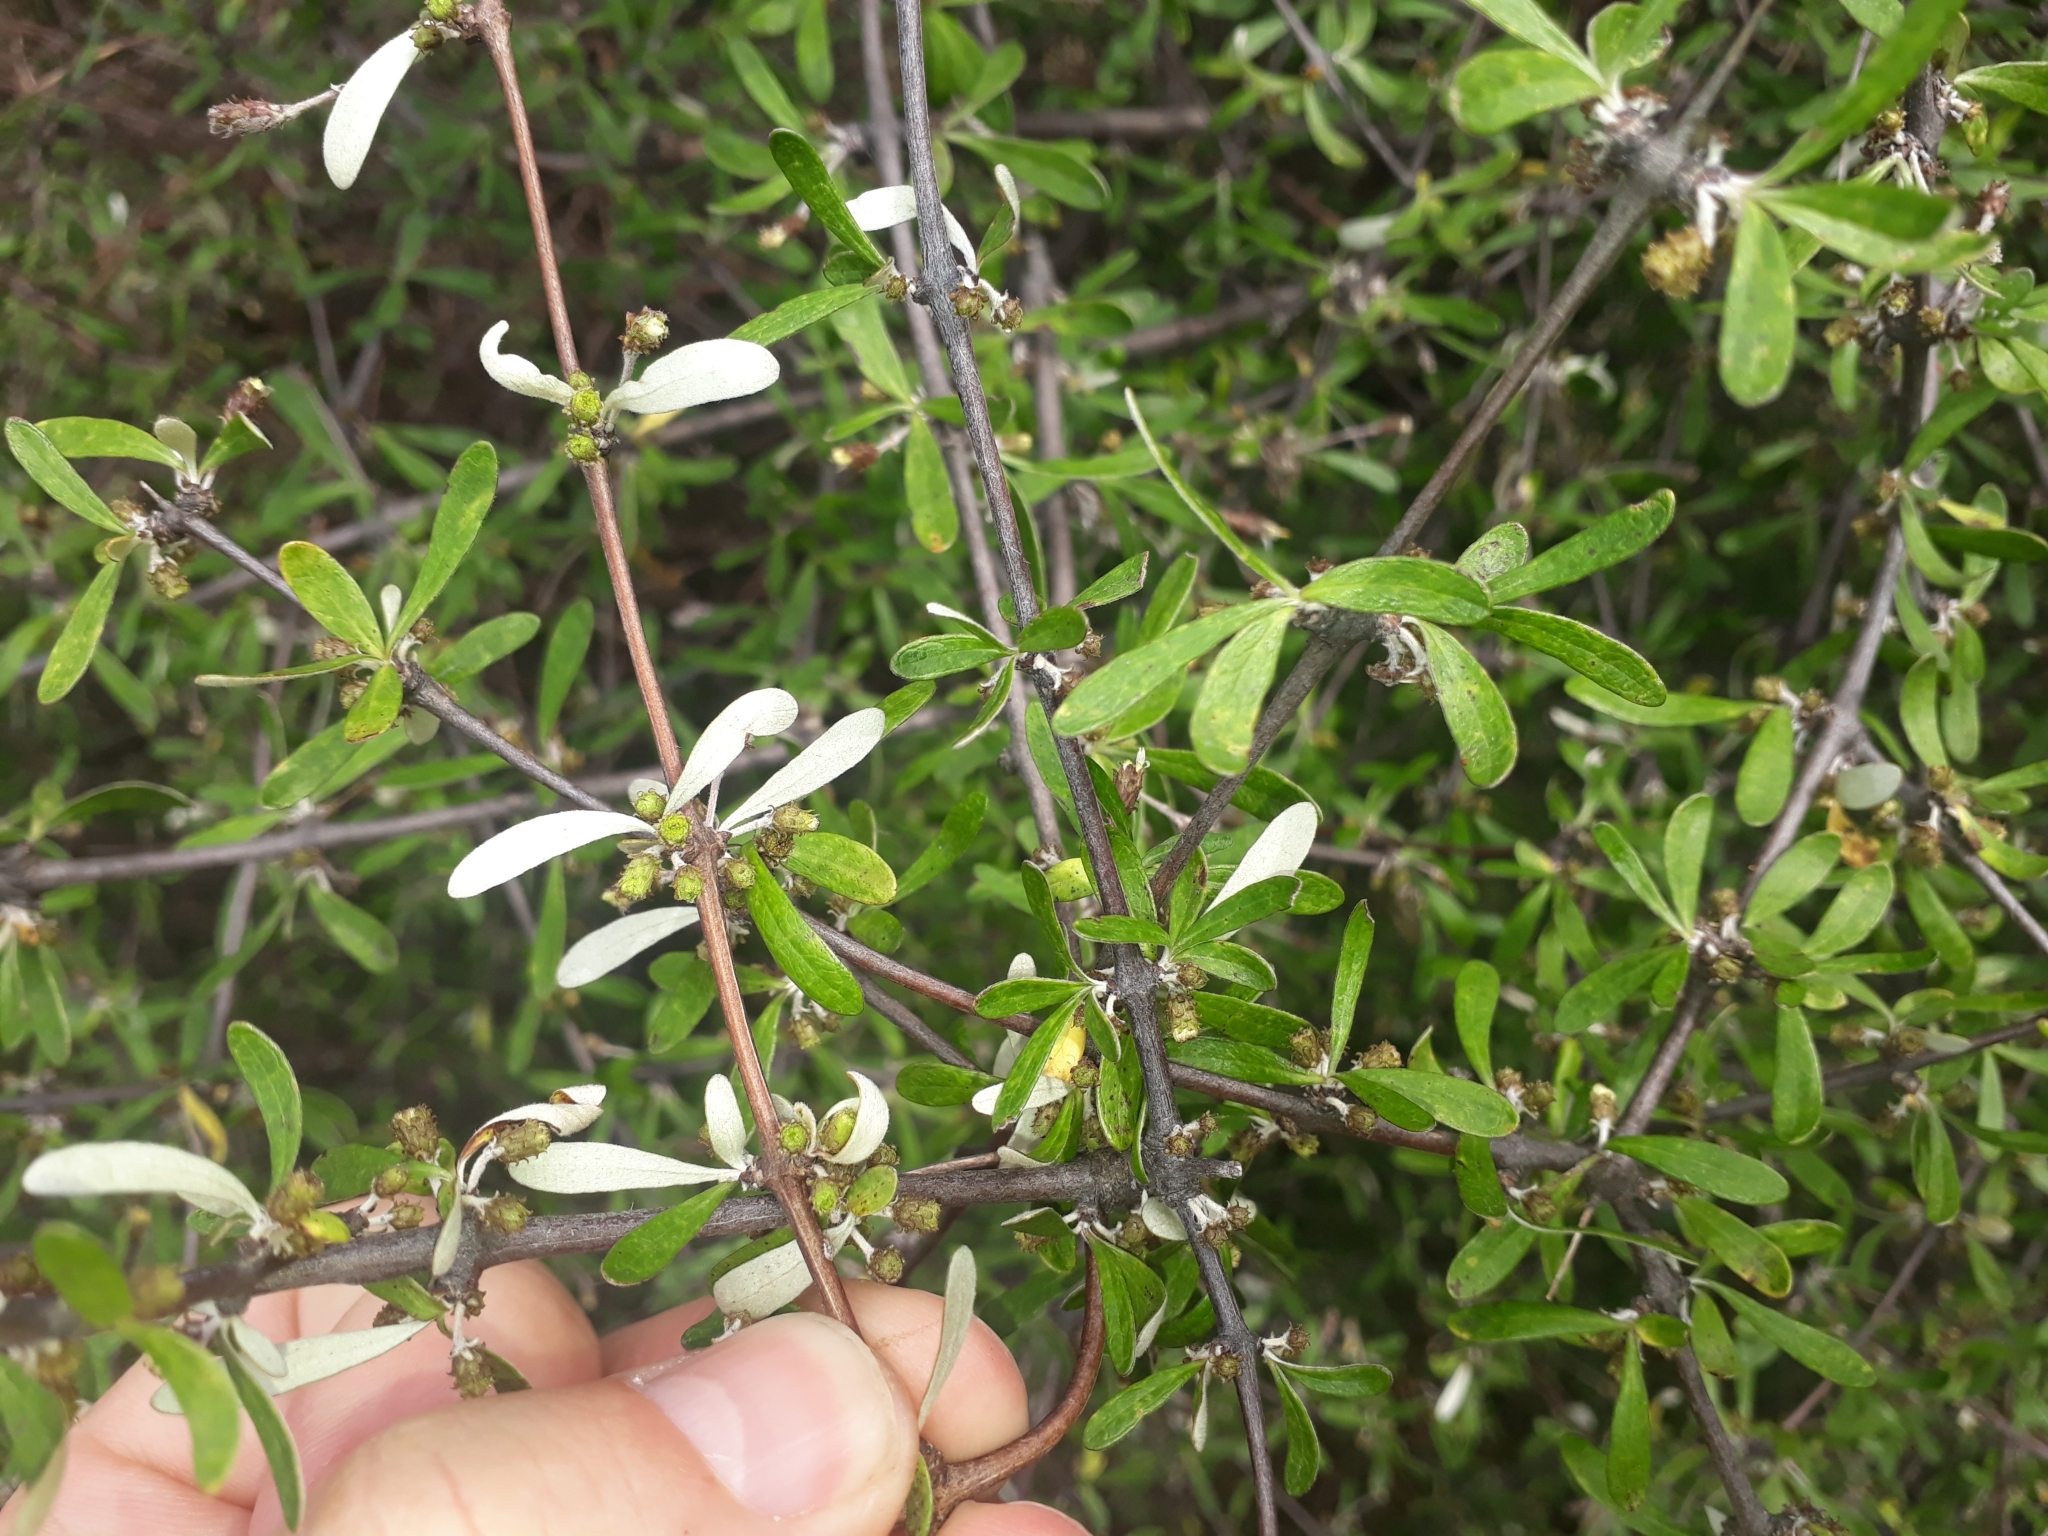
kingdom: Plantae
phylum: Tracheophyta
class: Magnoliopsida
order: Asterales
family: Asteraceae
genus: Olearia
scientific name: Olearia odorata
